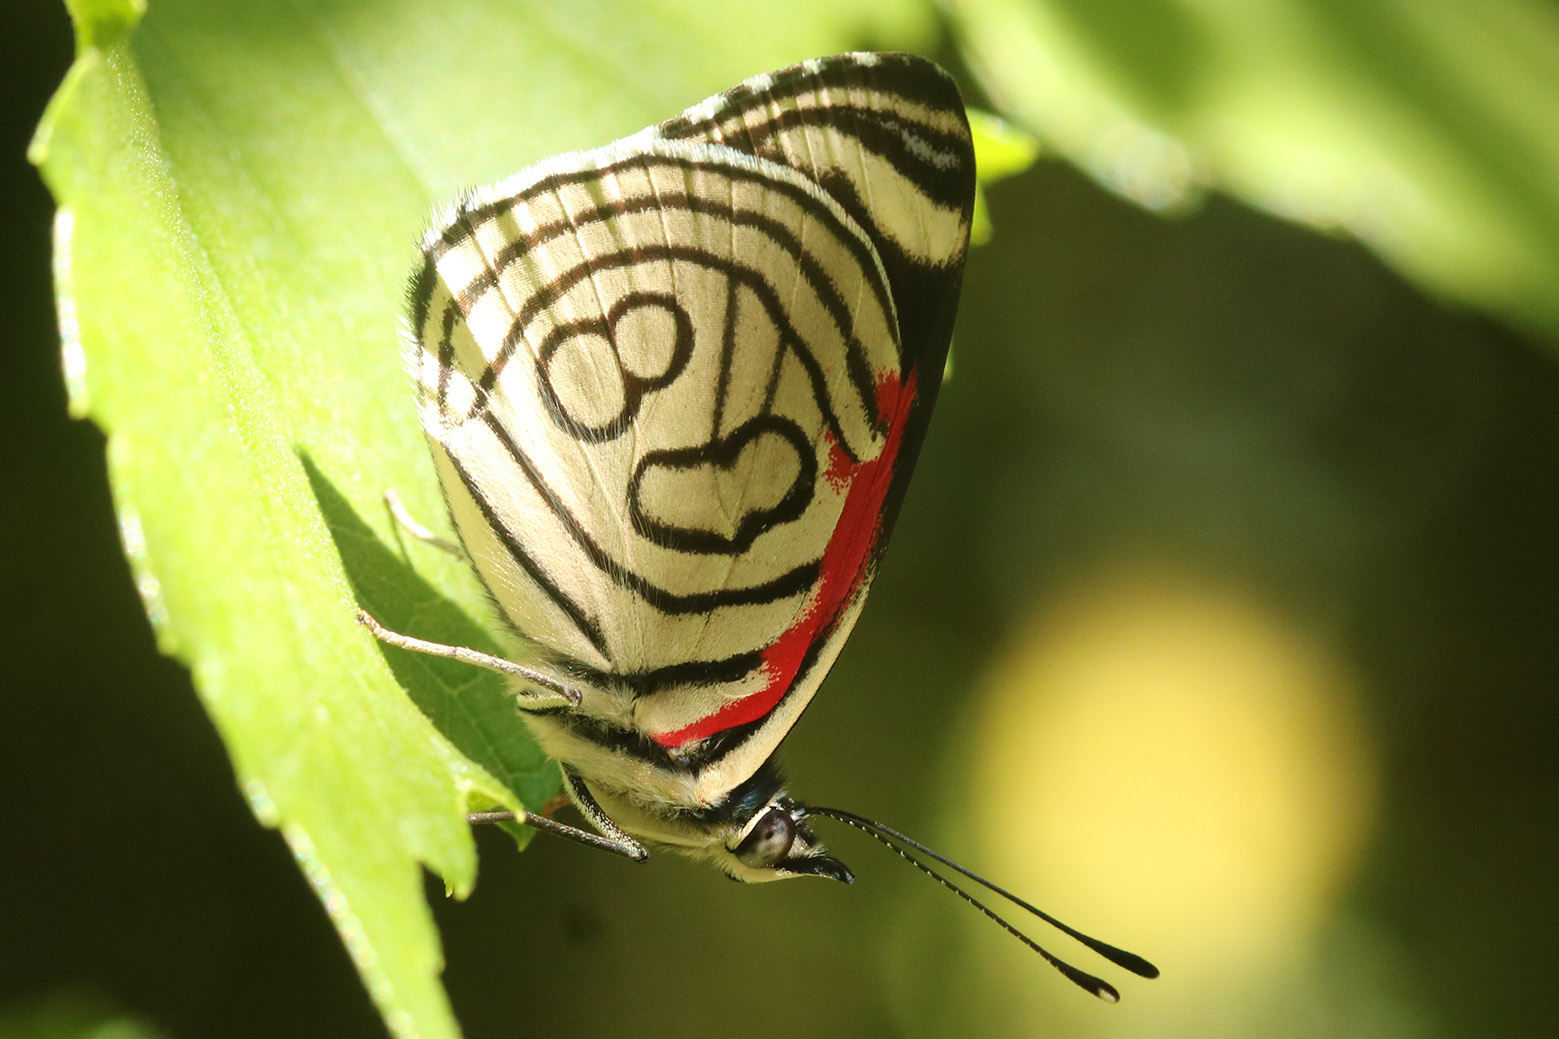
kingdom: Animalia
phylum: Arthropoda
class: Insecta
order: Lepidoptera
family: Nymphalidae
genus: Diaethria
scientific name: Diaethria candrena
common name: Number eighty
